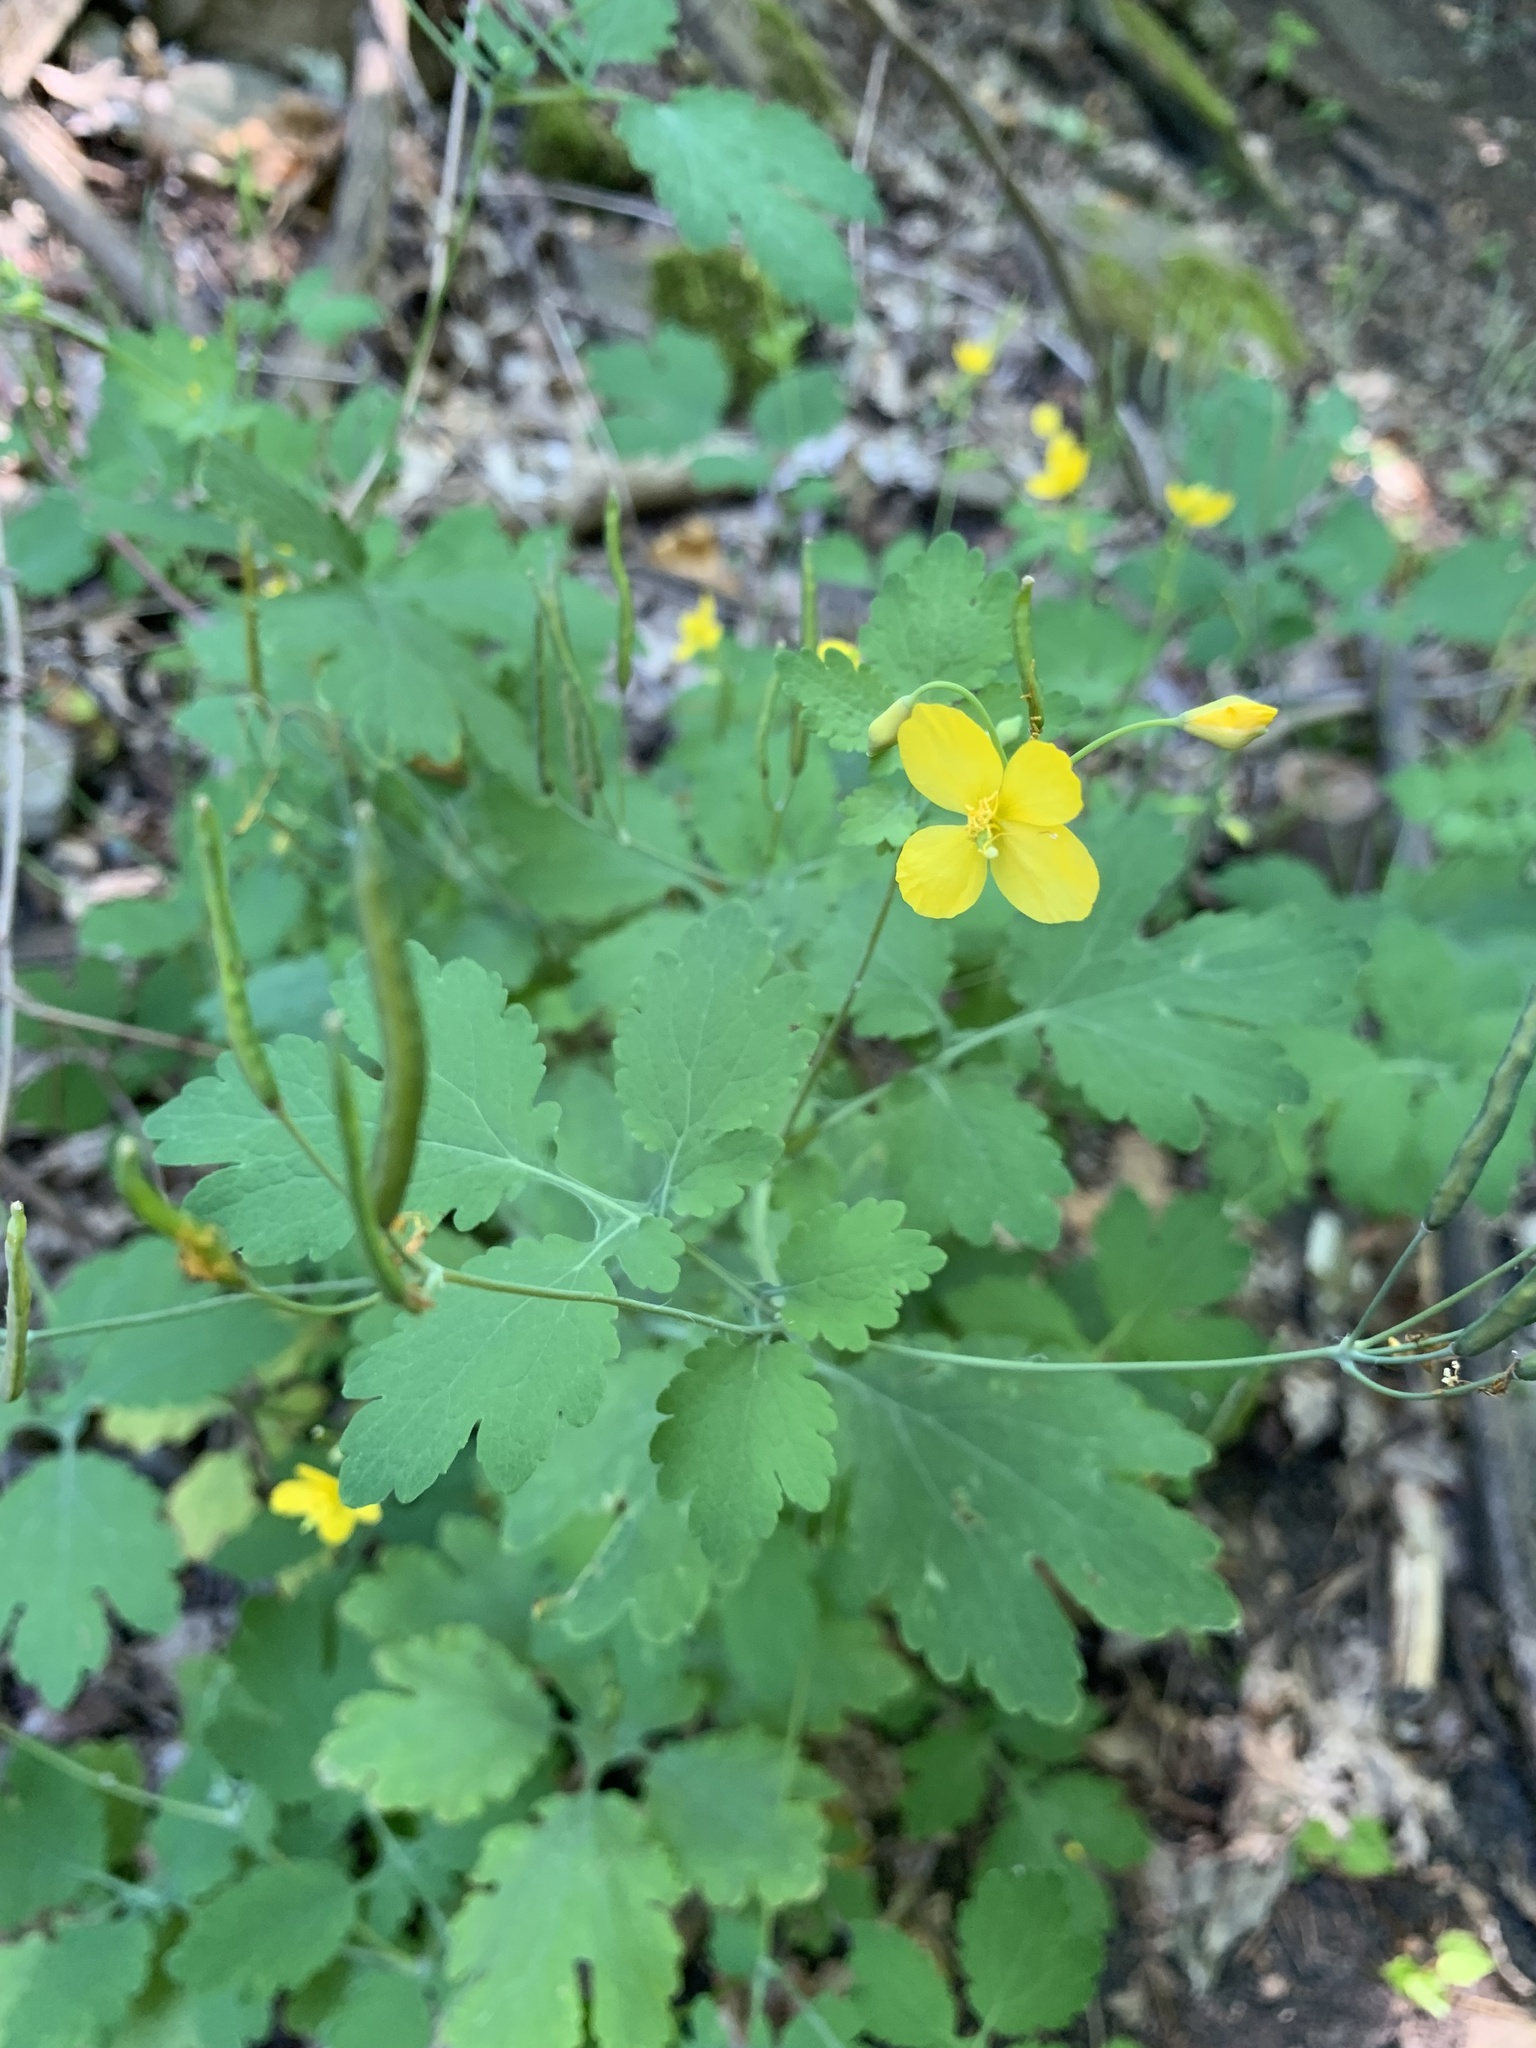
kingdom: Plantae
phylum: Tracheophyta
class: Magnoliopsida
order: Ranunculales
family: Papaveraceae
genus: Chelidonium
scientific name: Chelidonium majus
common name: Greater celandine
